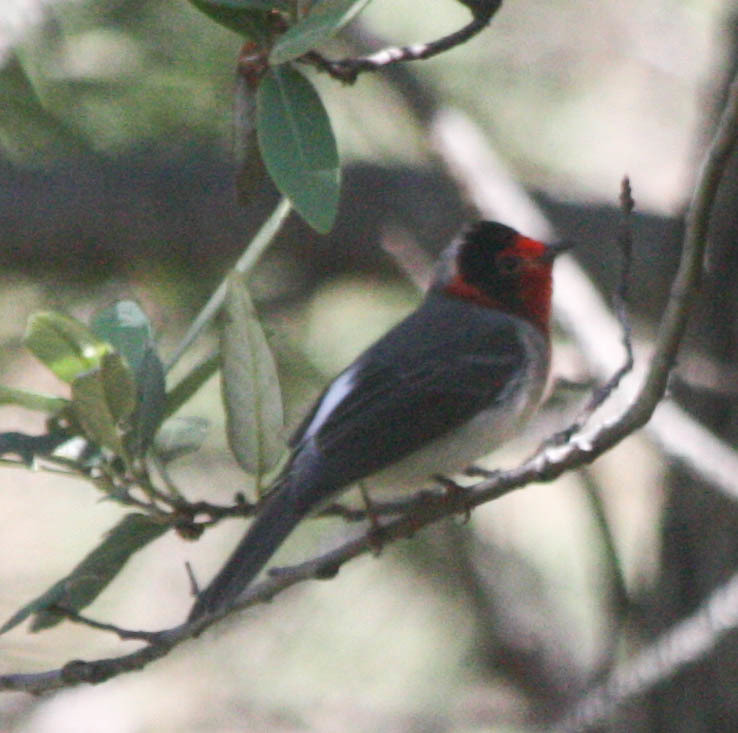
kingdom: Animalia
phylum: Chordata
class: Aves
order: Passeriformes
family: Parulidae
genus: Cardellina
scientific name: Cardellina rubrifrons
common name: Red-faced warbler
